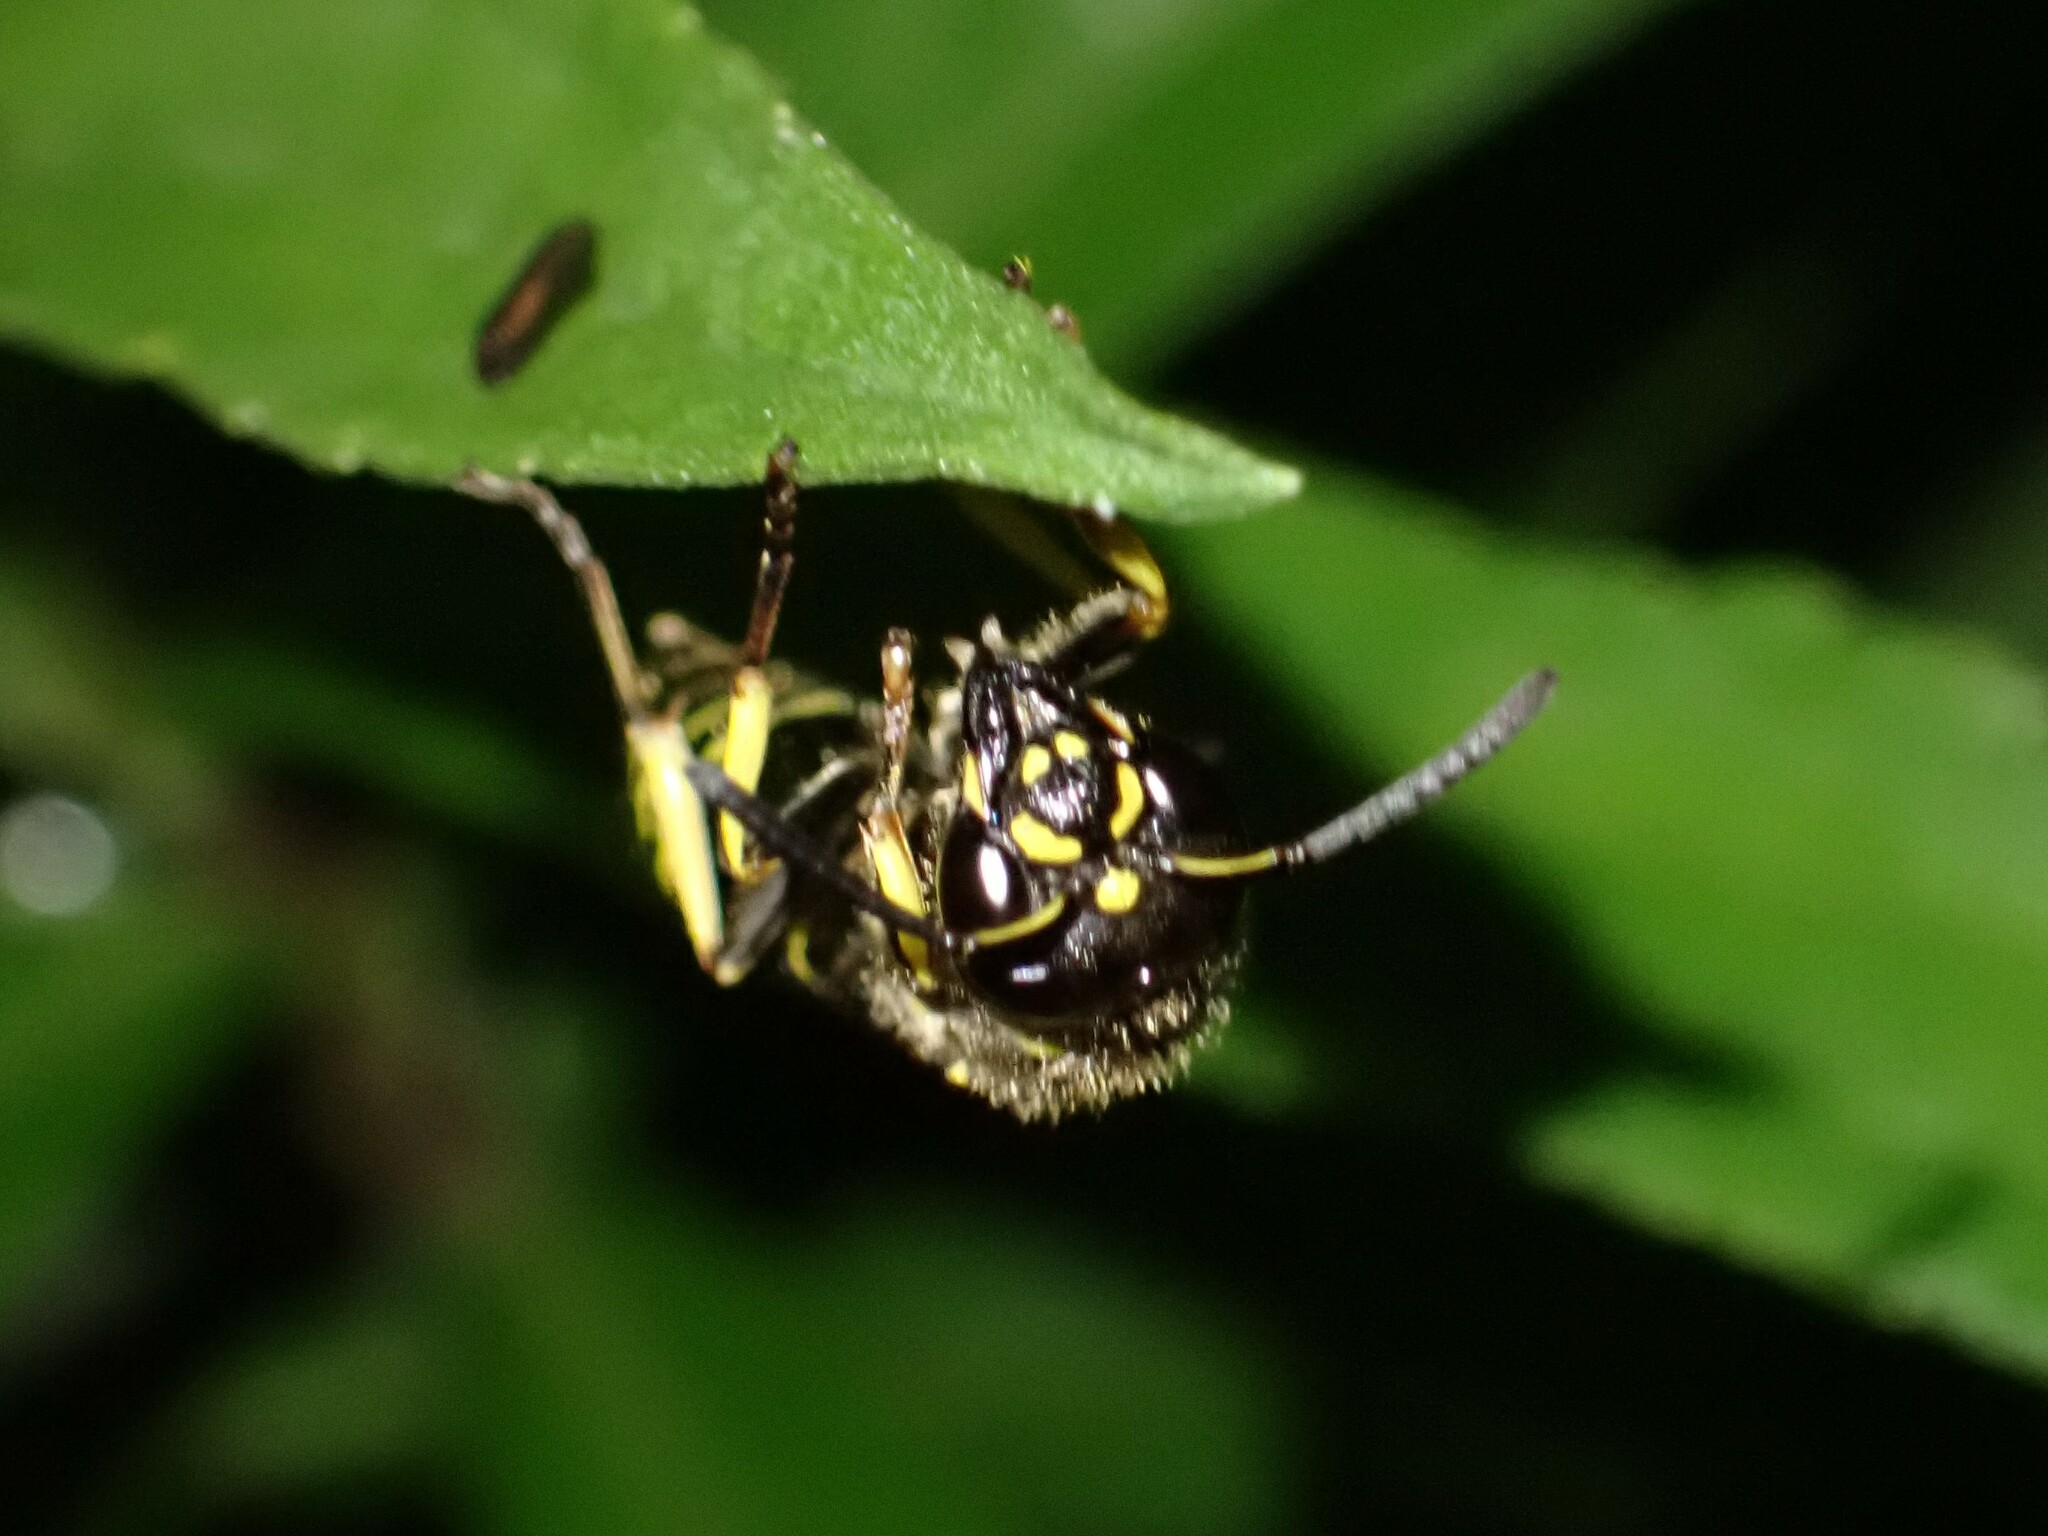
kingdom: Animalia
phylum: Arthropoda
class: Insecta
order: Hymenoptera
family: Vespidae
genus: Ancistrocerus
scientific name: Ancistrocerus
